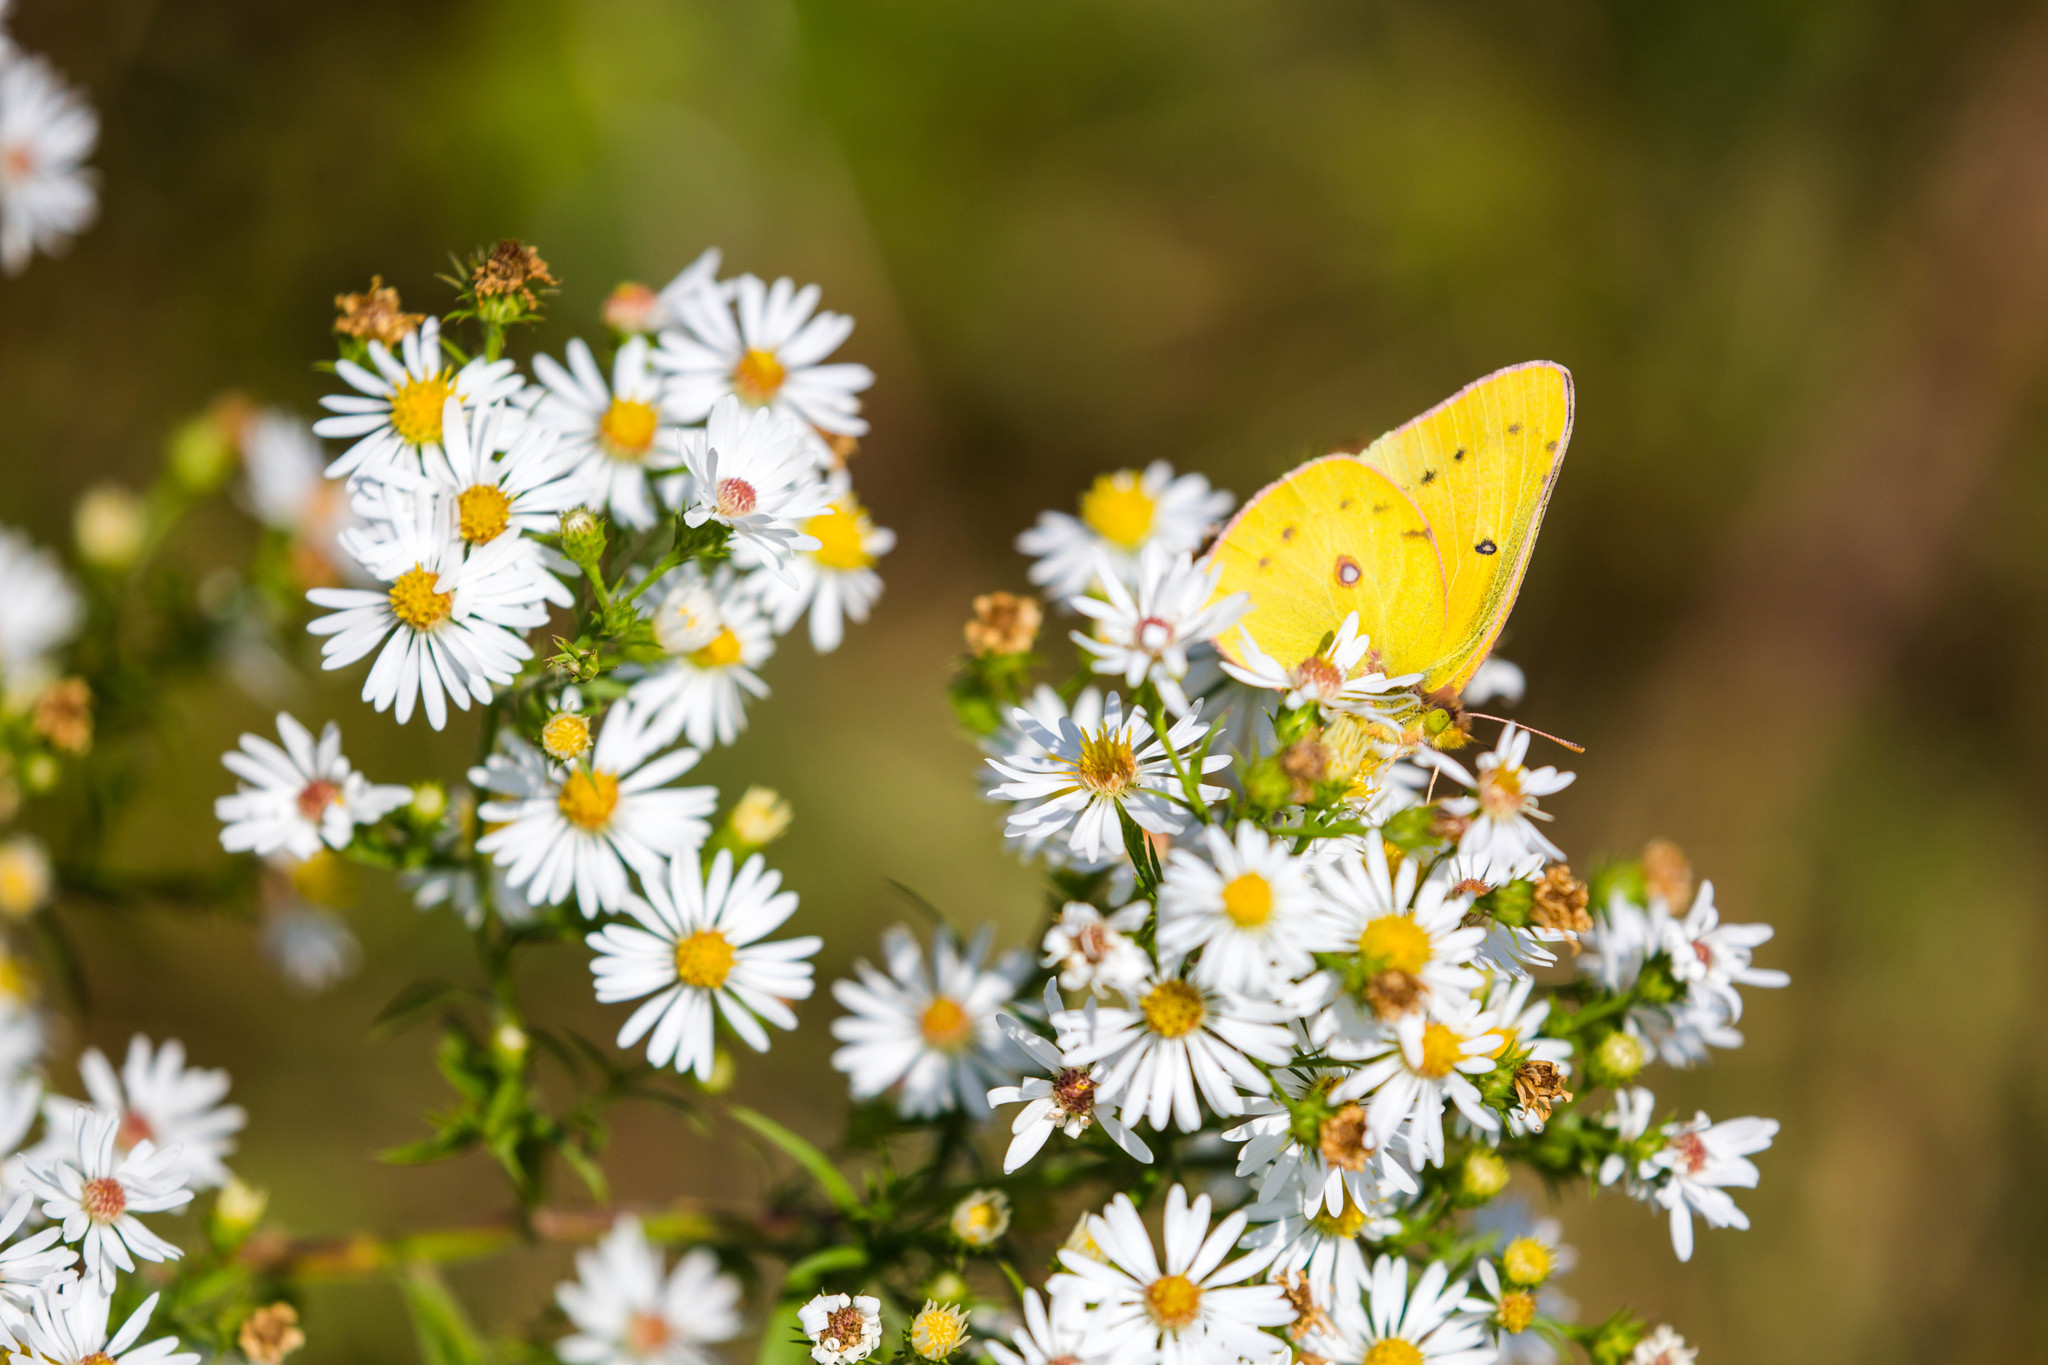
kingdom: Animalia
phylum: Arthropoda
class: Insecta
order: Lepidoptera
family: Pieridae
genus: Colias
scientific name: Colias eurytheme
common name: Alfalfa butterfly
